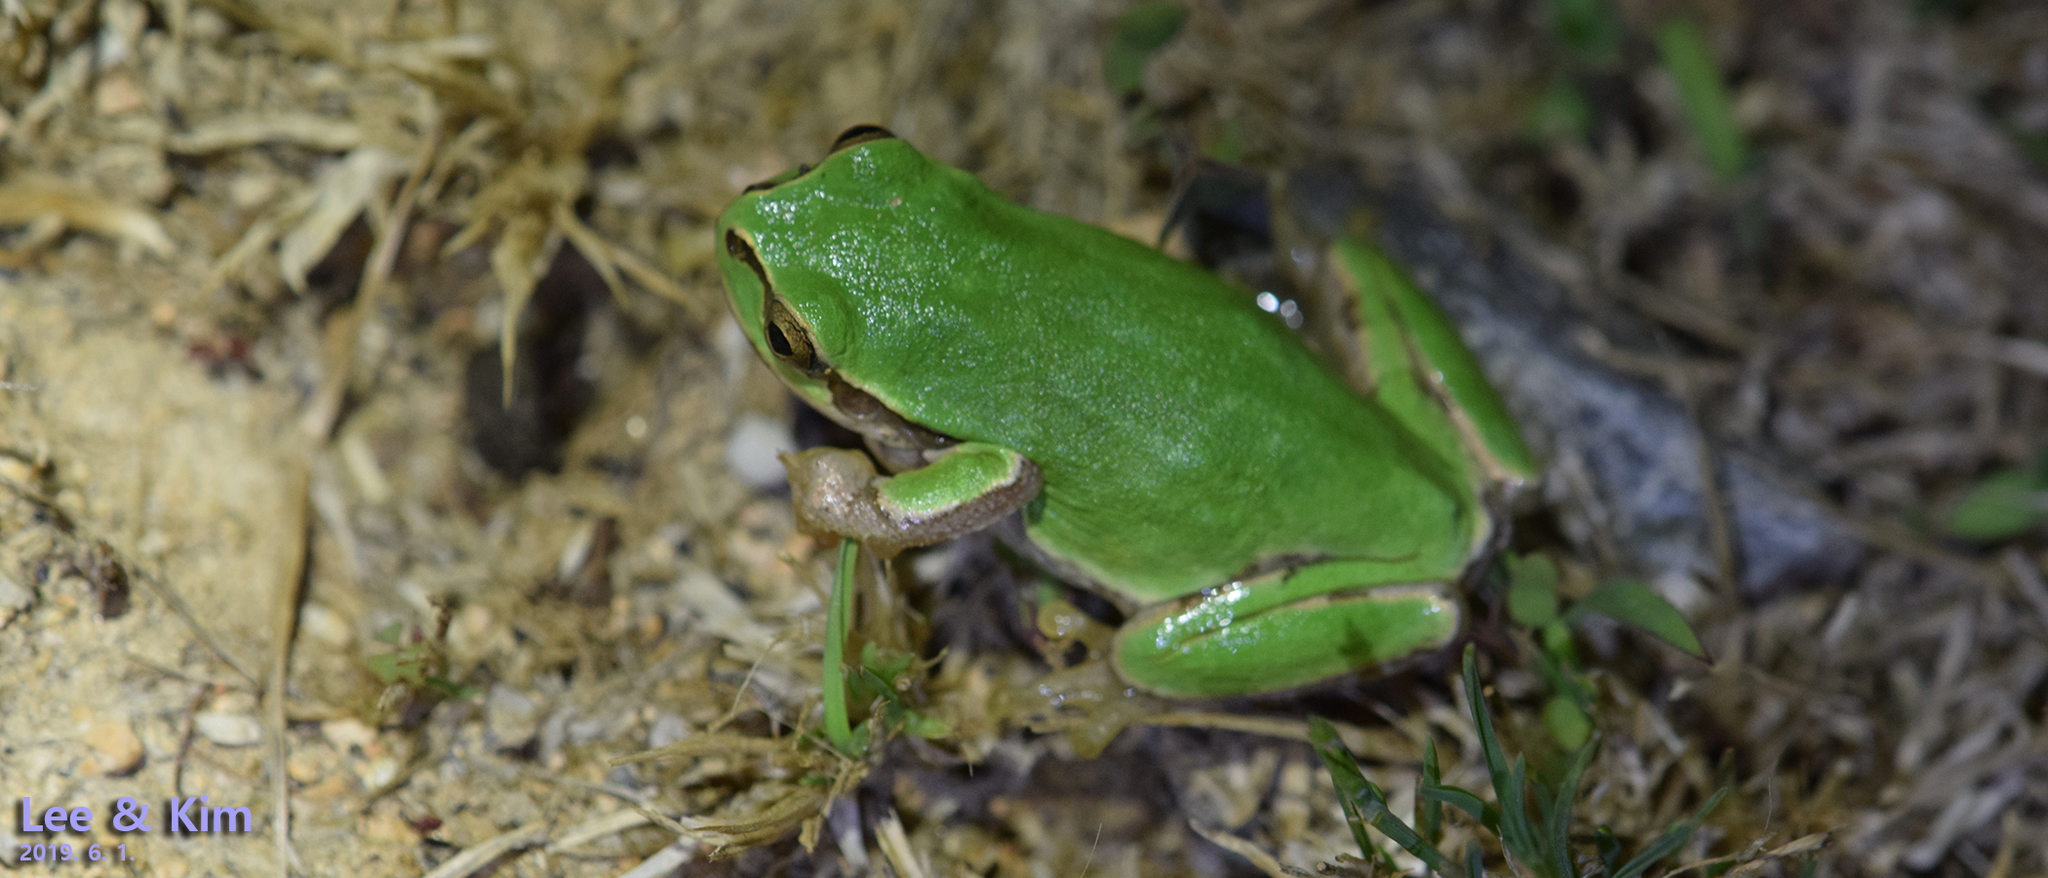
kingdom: Animalia
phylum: Chordata
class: Amphibia
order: Anura
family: Hylidae
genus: Dryophytes
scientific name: Dryophytes japonicus
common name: Japanese treefrog
